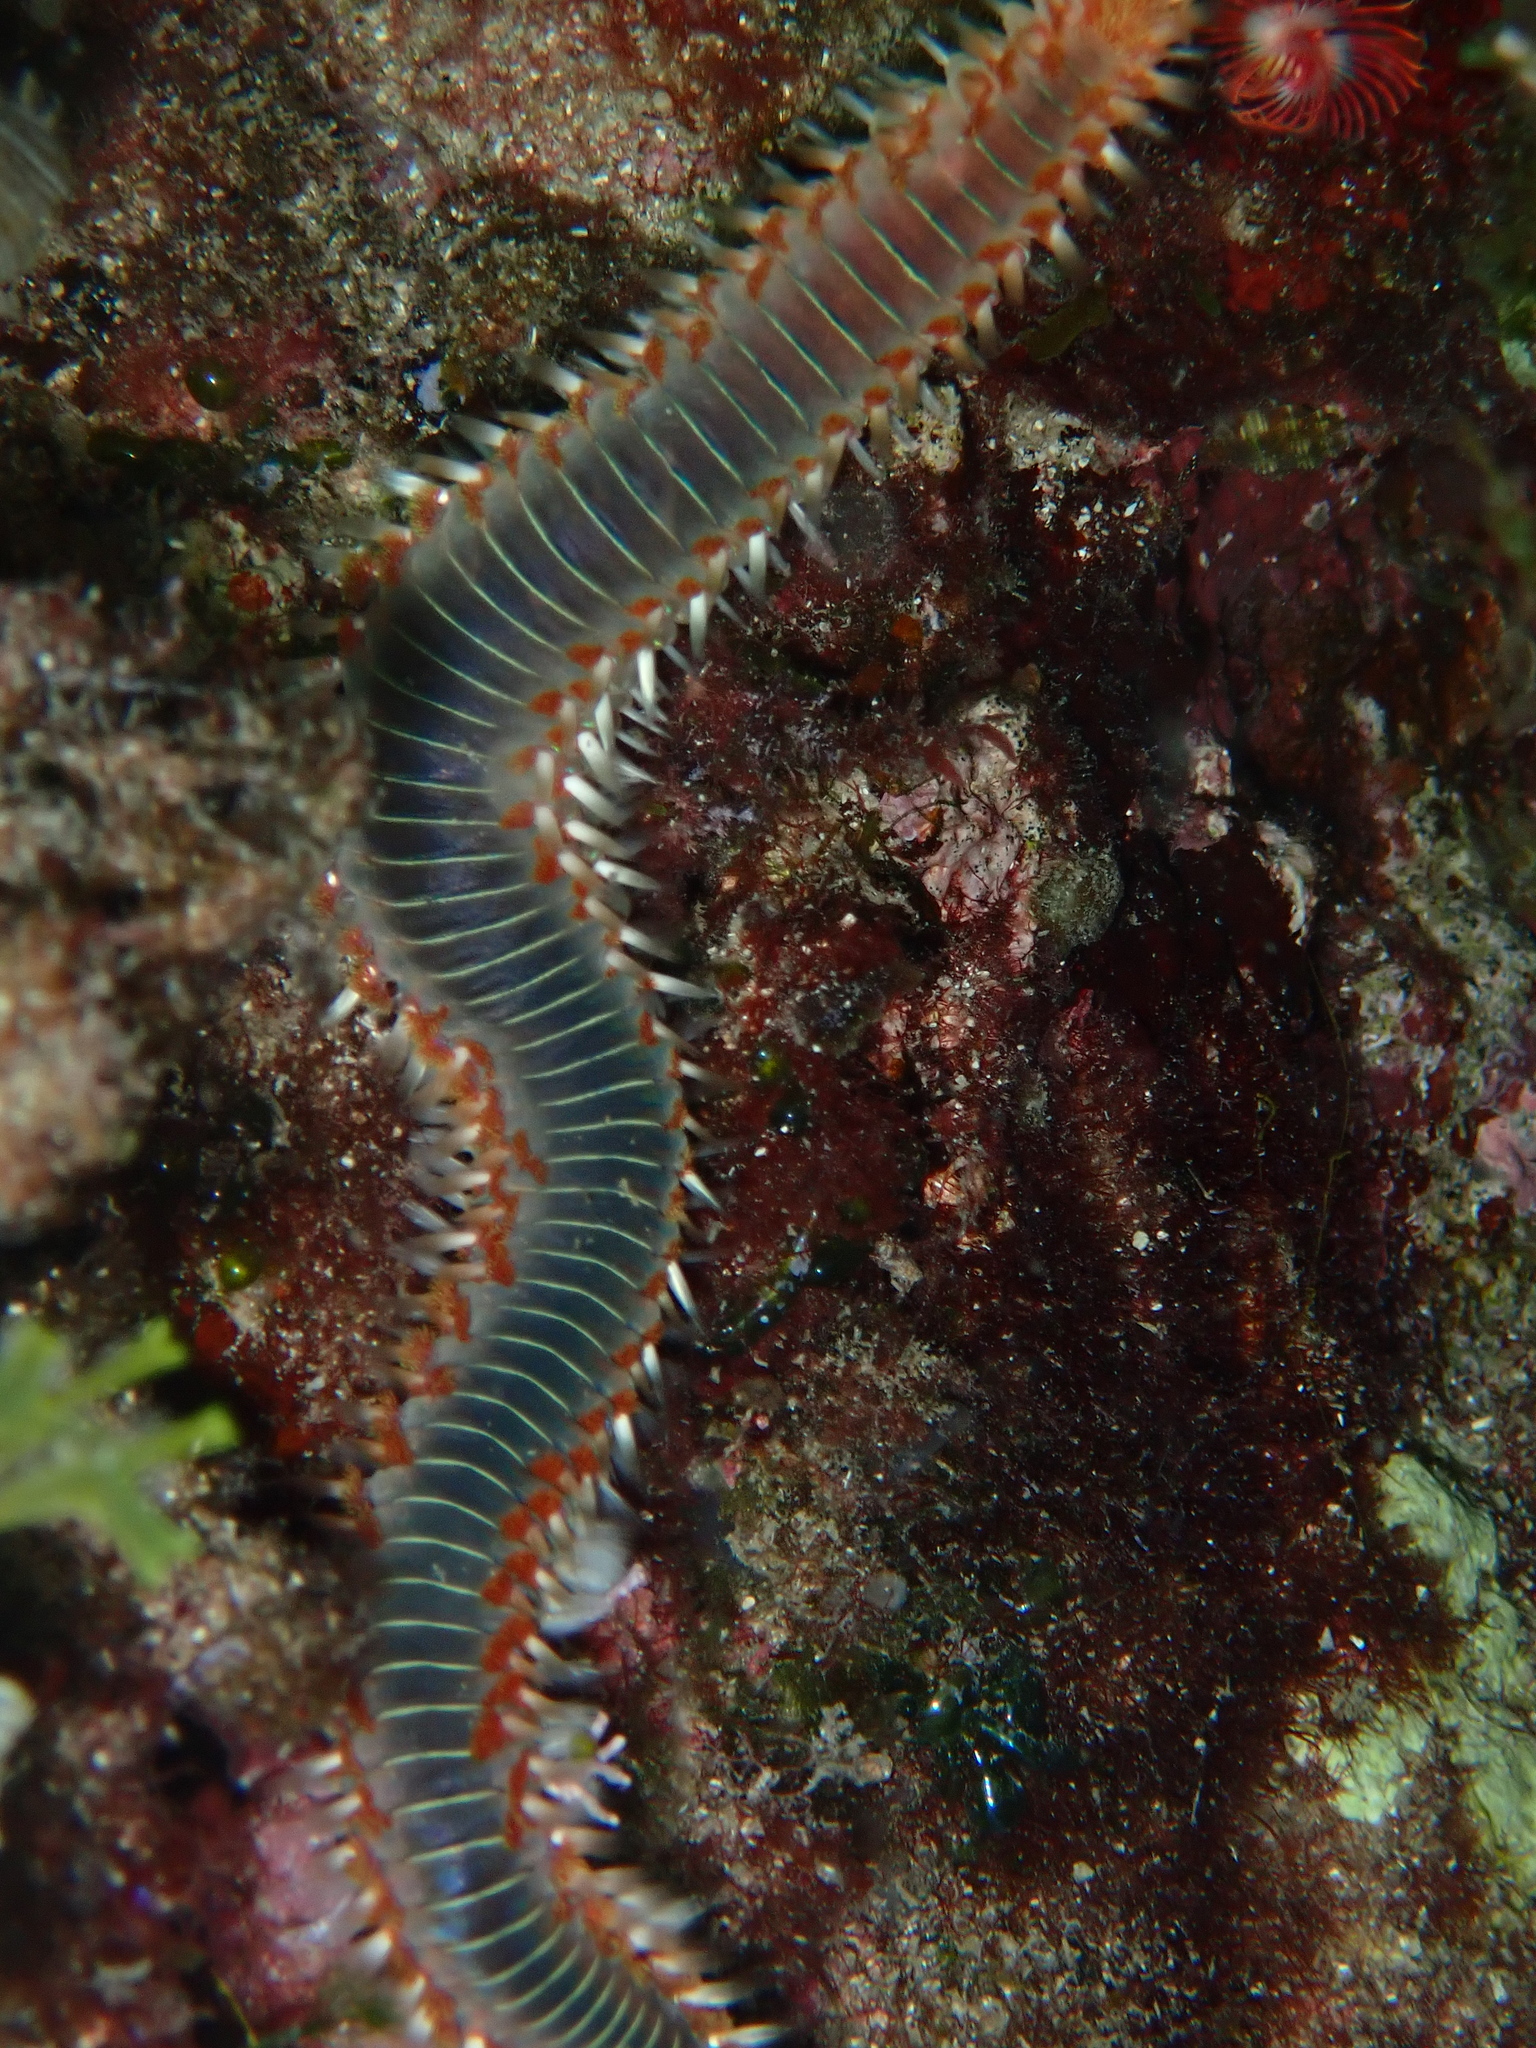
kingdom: Animalia
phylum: Annelida
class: Polychaeta
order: Amphinomida
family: Amphinomidae
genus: Hermodice
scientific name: Hermodice carunculata
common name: Bearded fireworm
